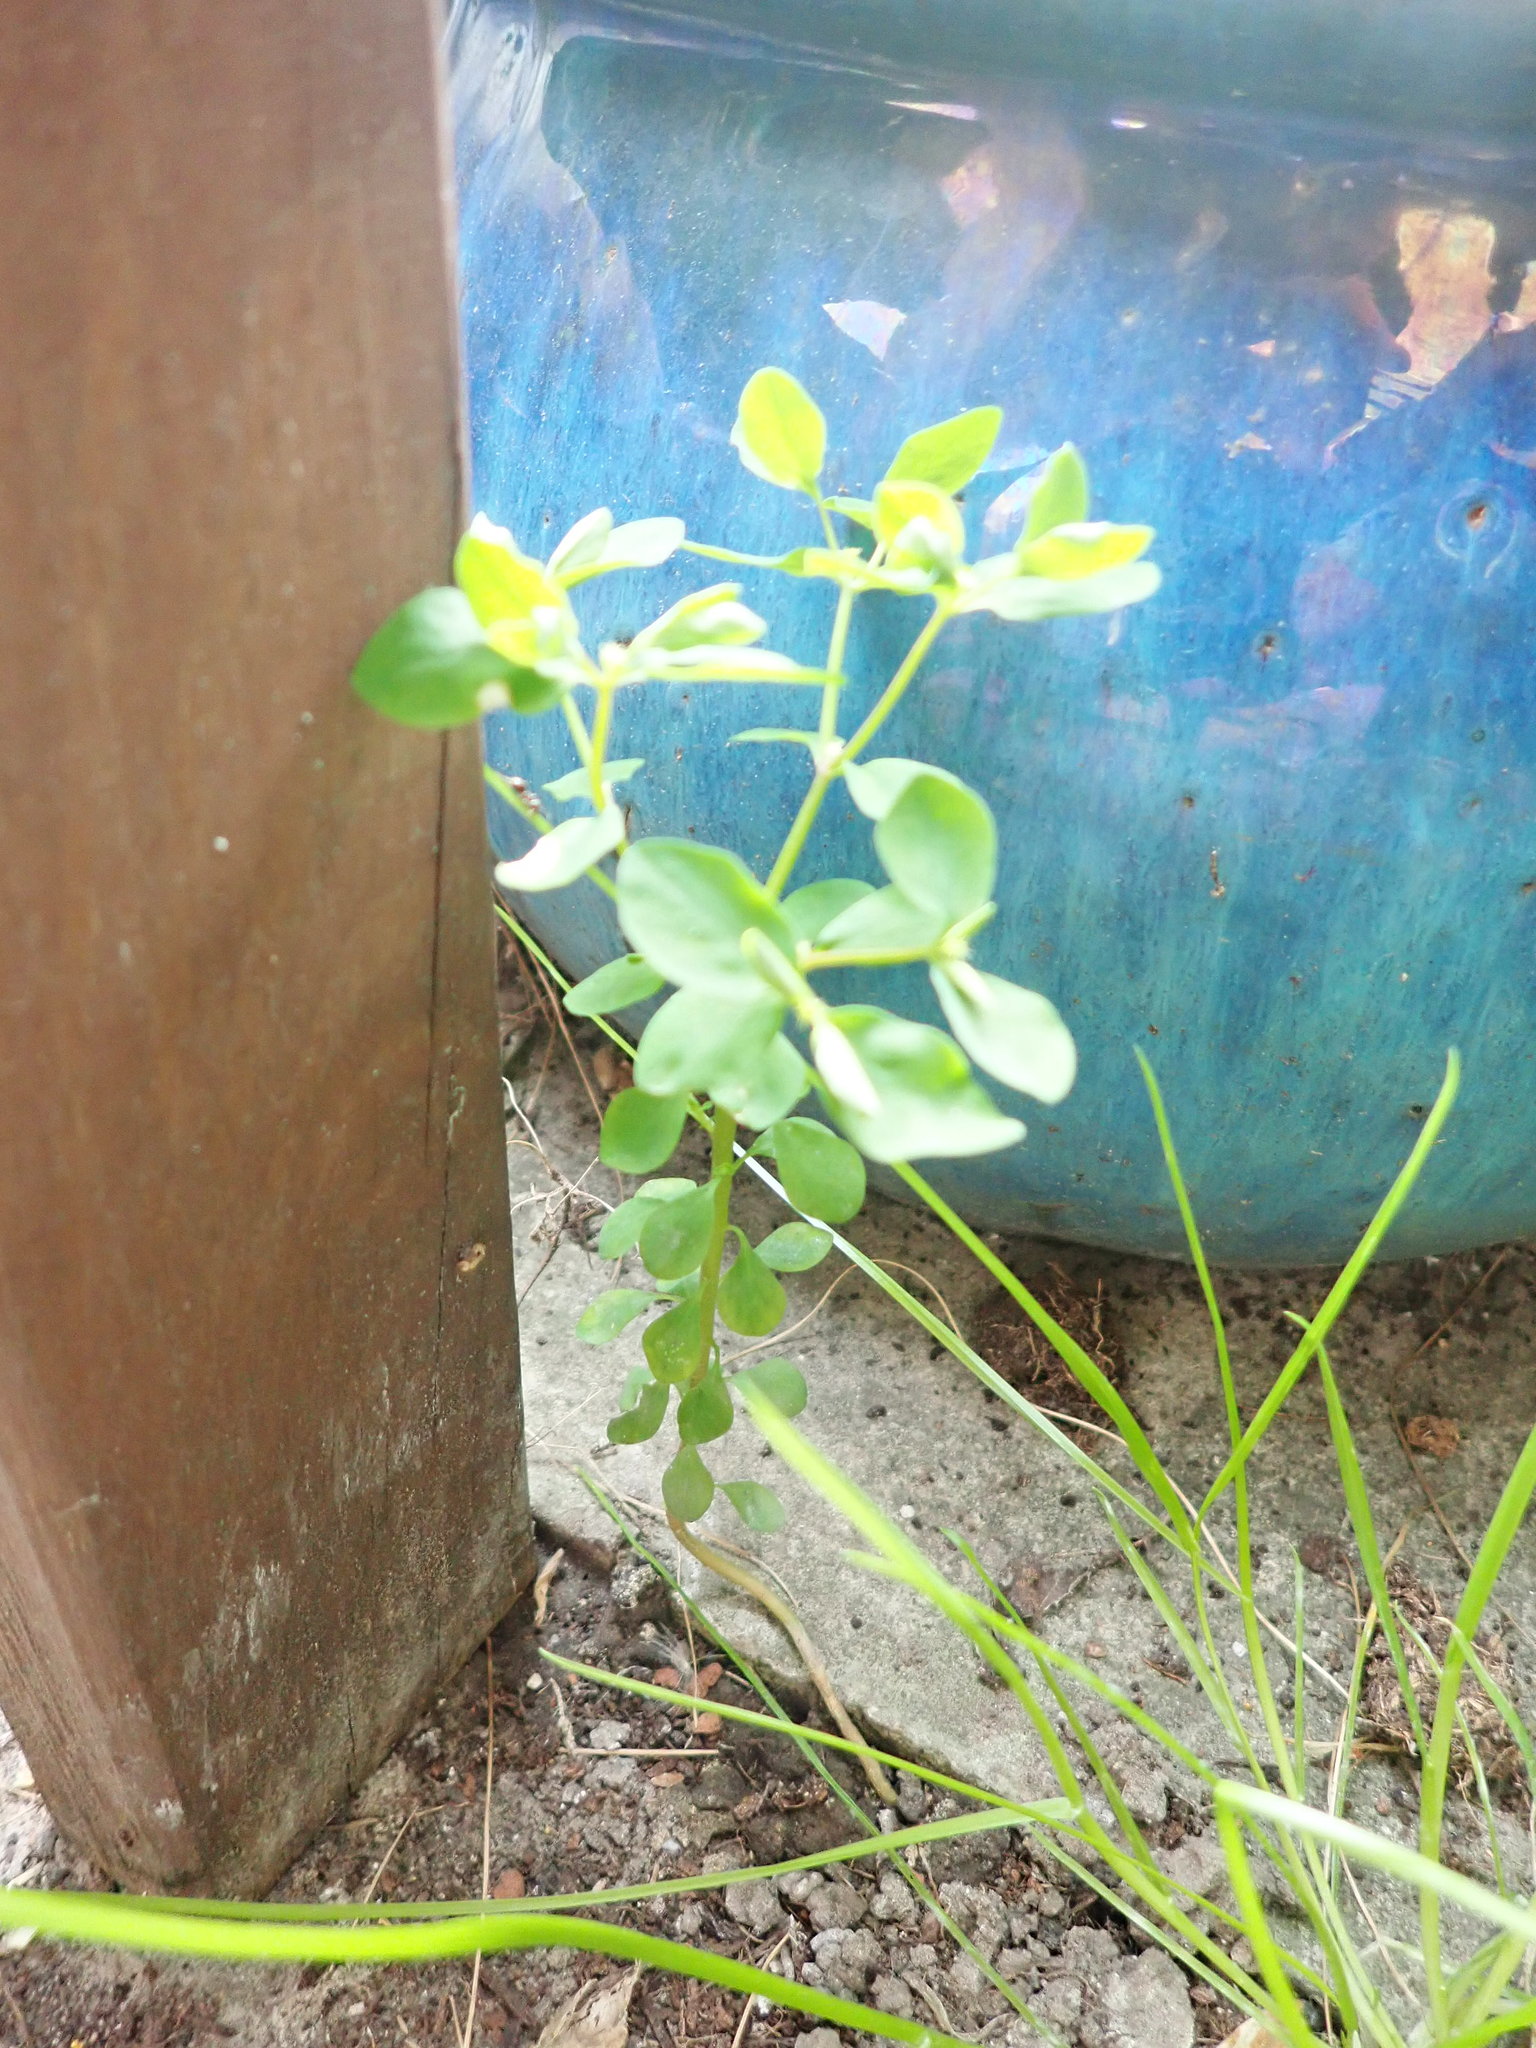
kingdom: Plantae
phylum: Tracheophyta
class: Magnoliopsida
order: Malpighiales
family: Euphorbiaceae
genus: Euphorbia
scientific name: Euphorbia peplus
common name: Petty spurge
